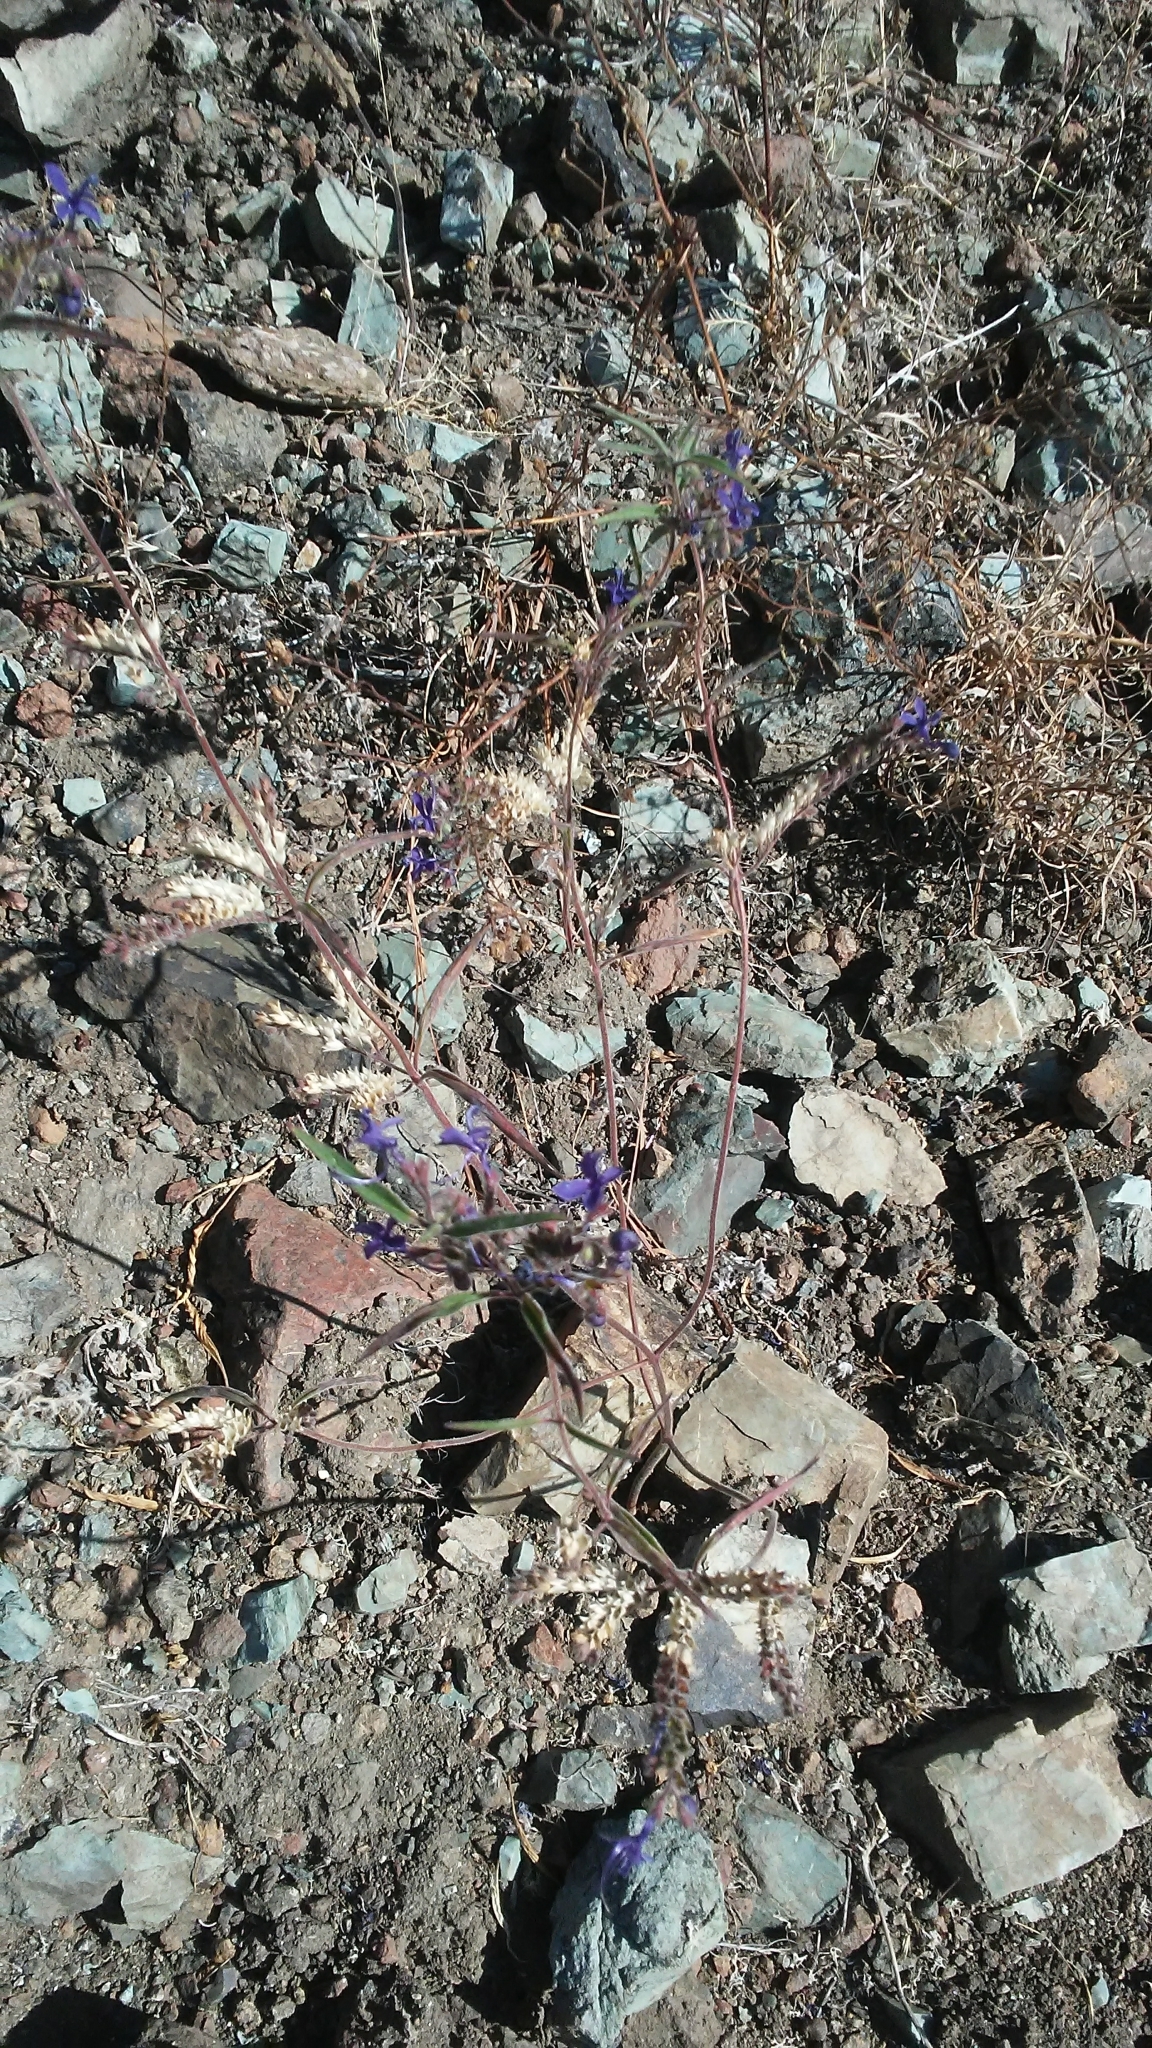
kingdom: Plantae
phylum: Tracheophyta
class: Magnoliopsida
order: Lamiales
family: Lamiaceae
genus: Trichostema
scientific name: Trichostema laxum
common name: Turpentine weed
